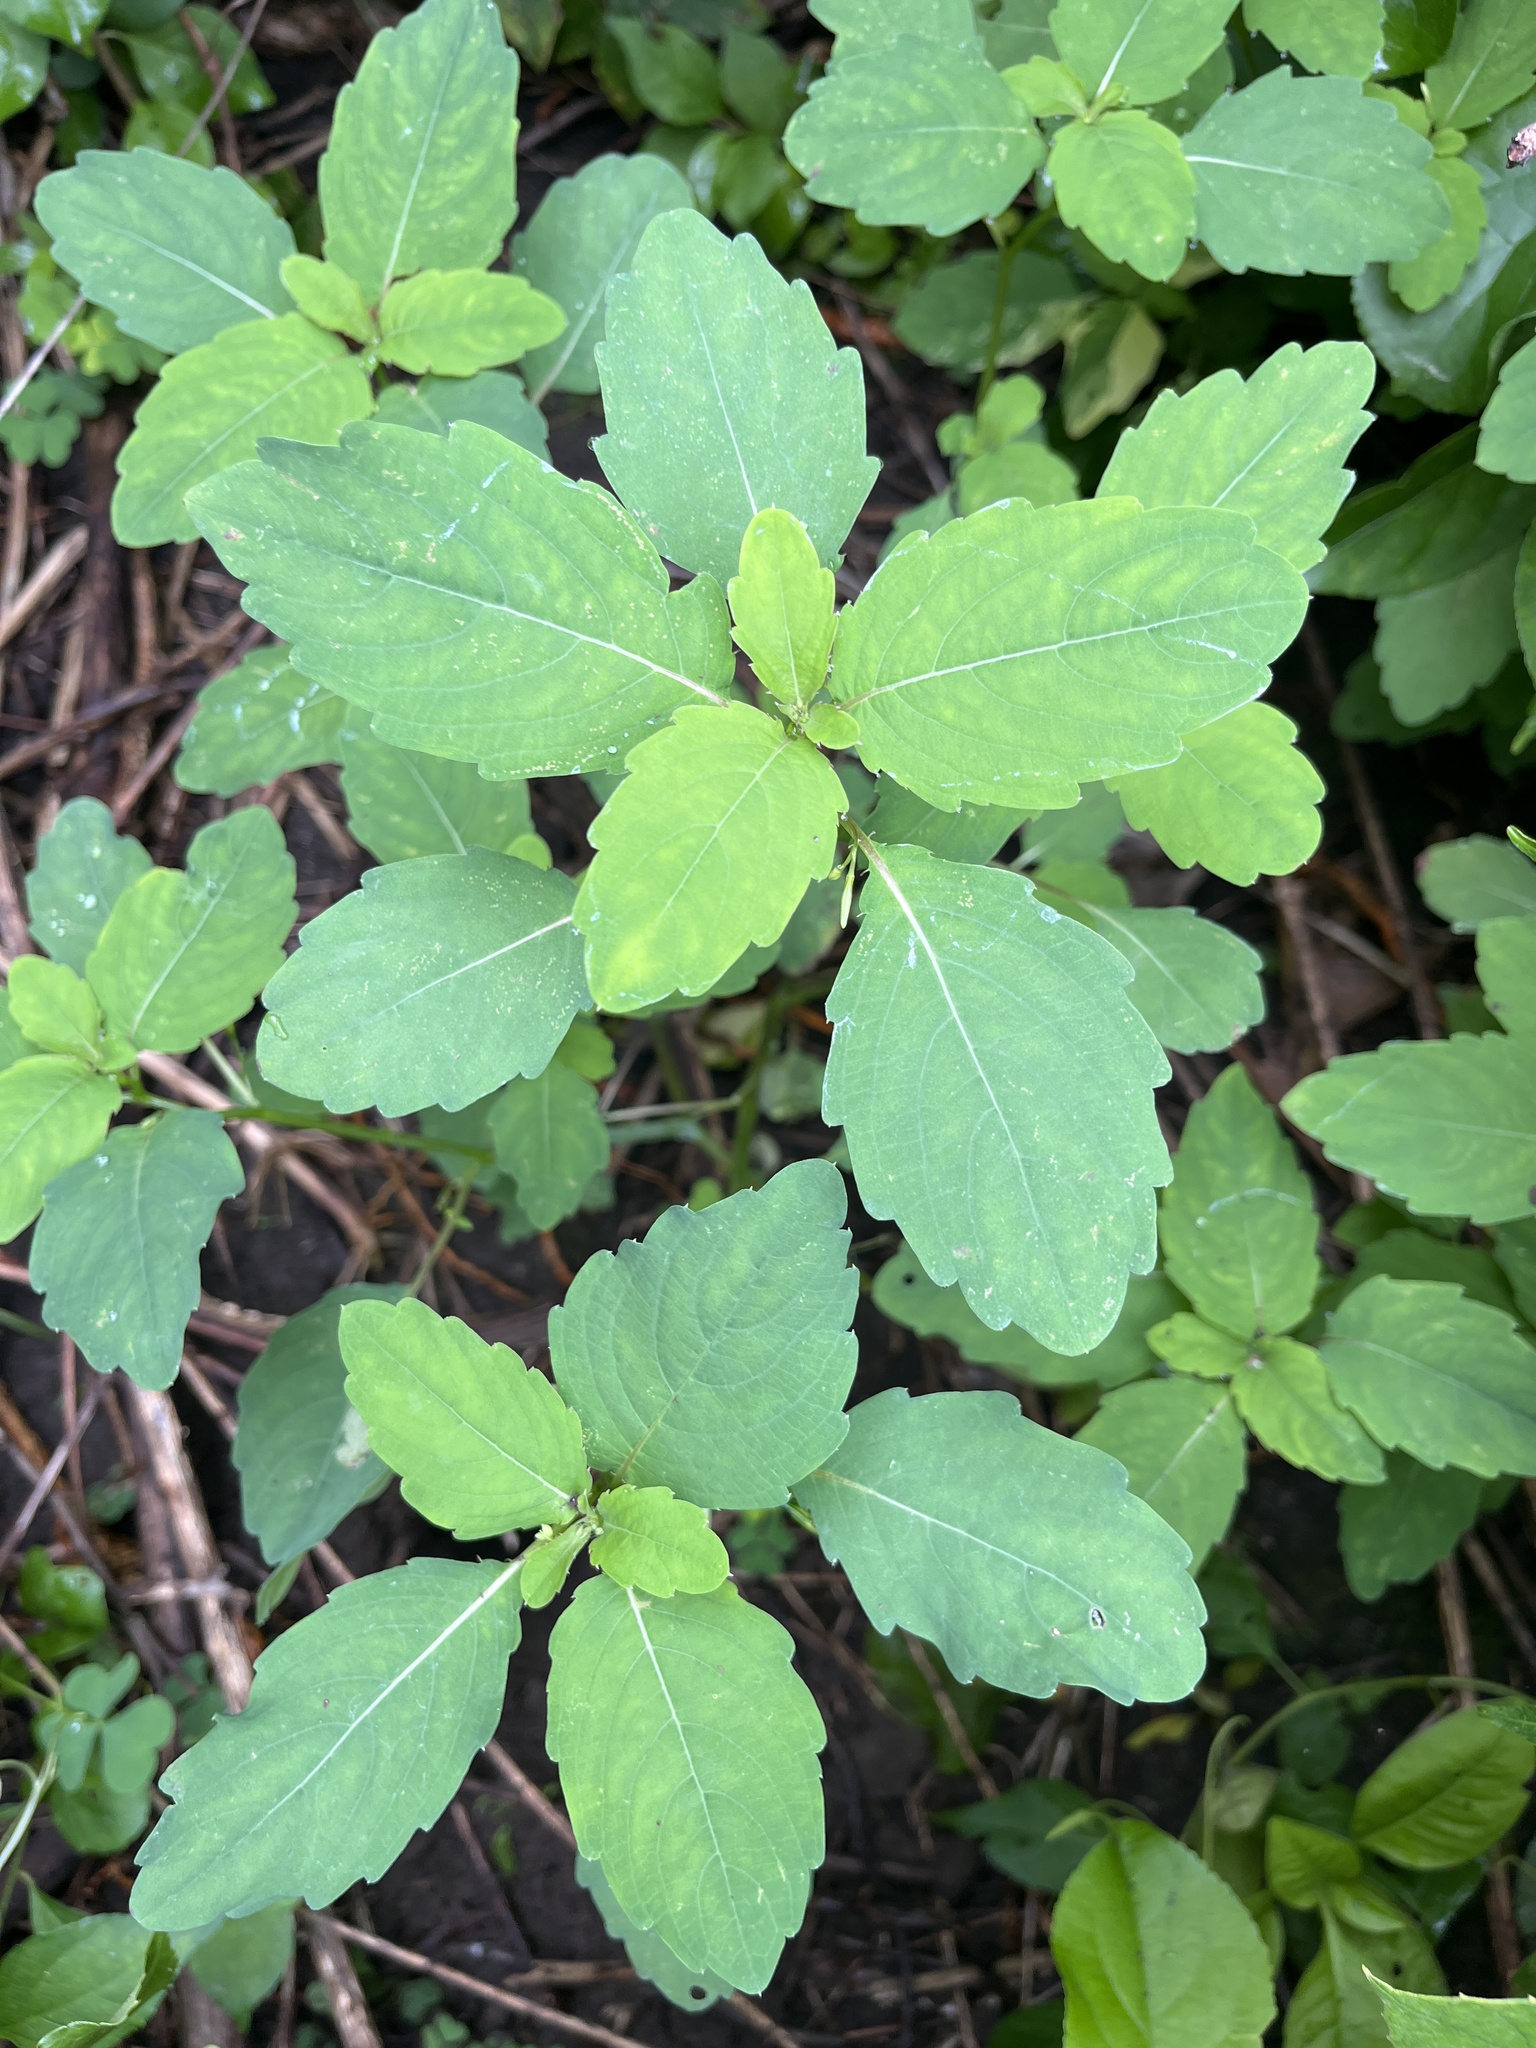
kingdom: Plantae
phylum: Tracheophyta
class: Magnoliopsida
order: Ericales
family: Balsaminaceae
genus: Impatiens
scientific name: Impatiens capensis
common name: Orange balsam
